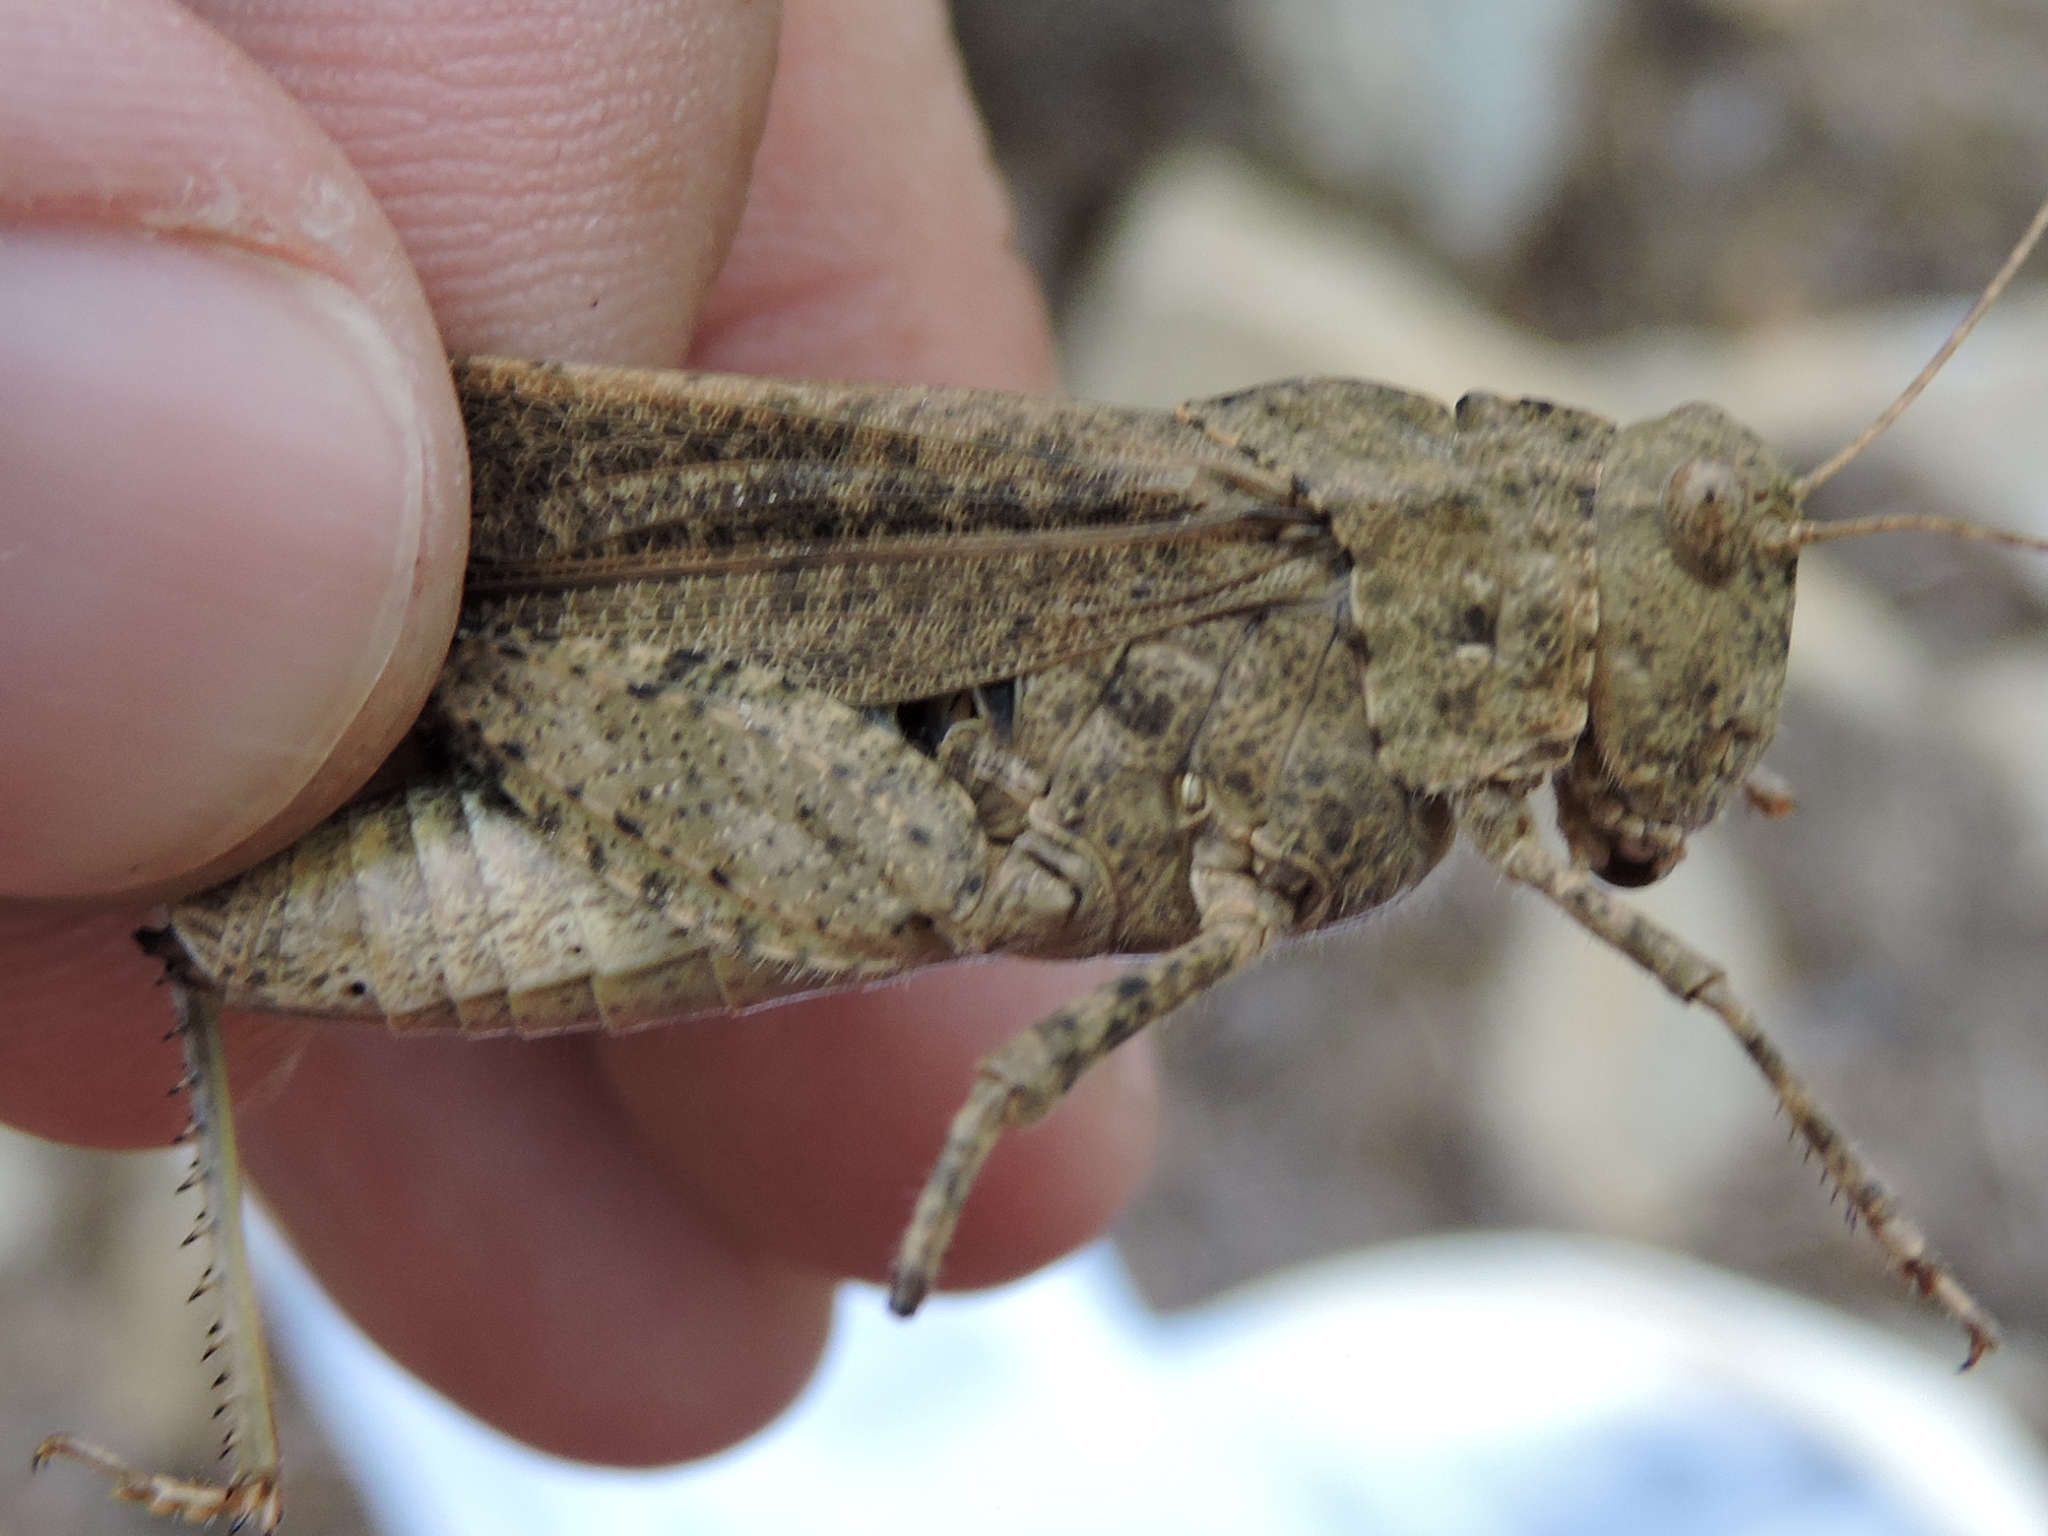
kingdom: Animalia
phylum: Arthropoda
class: Insecta
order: Orthoptera
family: Acrididae
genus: Dissosteira
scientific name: Dissosteira carolina
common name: Carolina grasshopper
